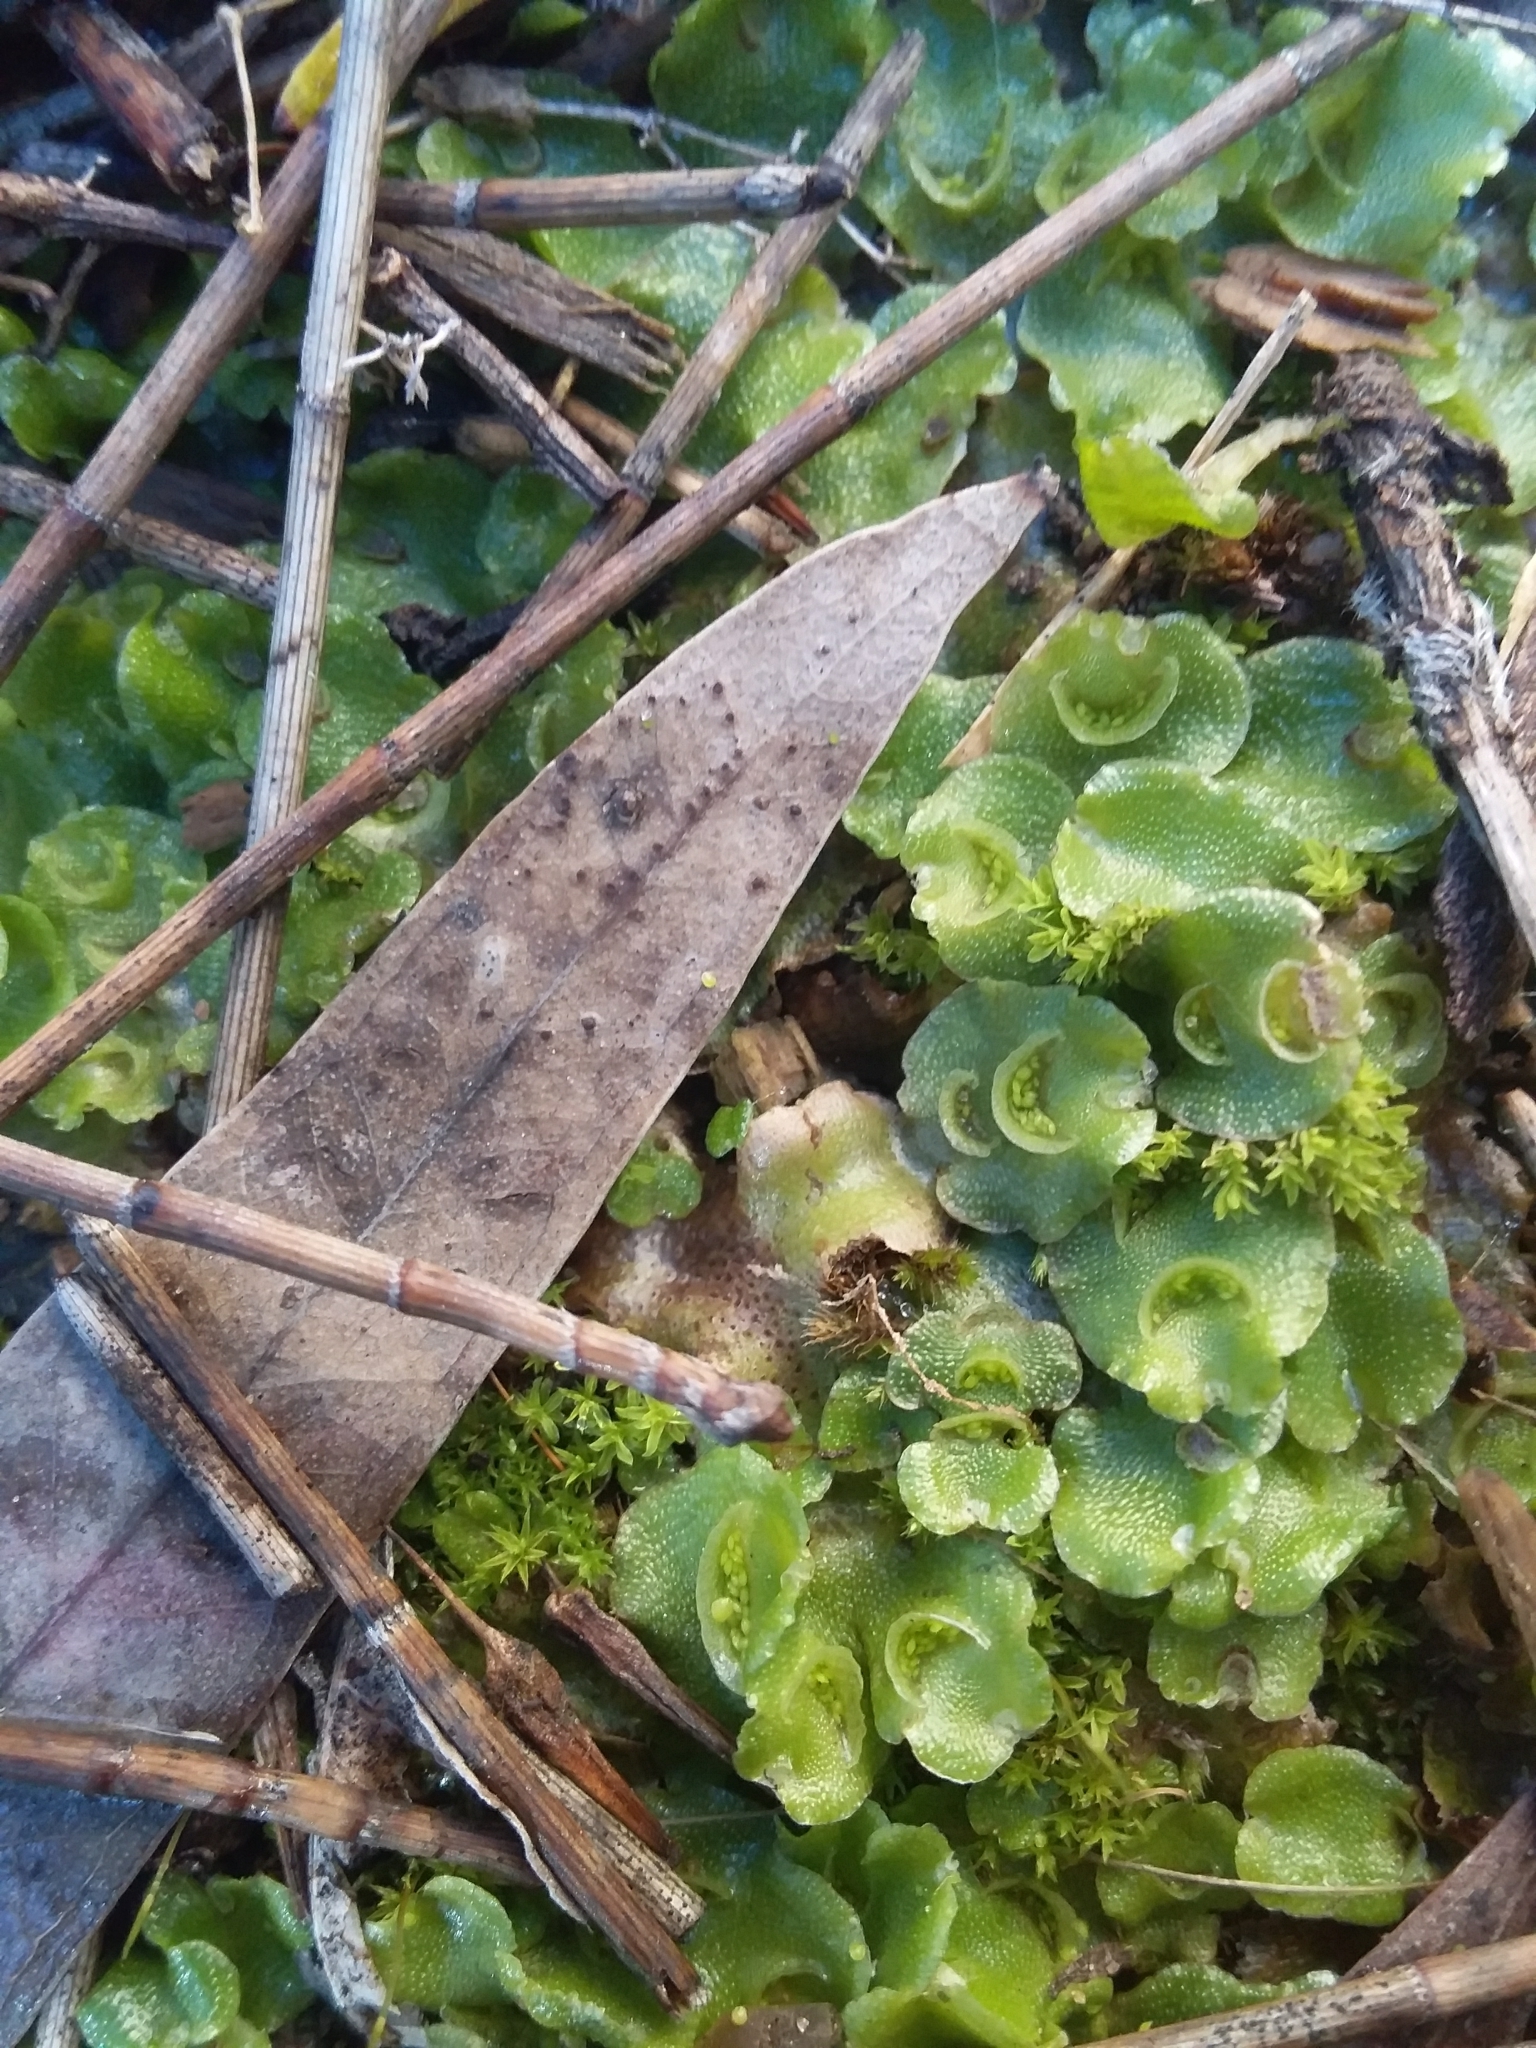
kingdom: Plantae
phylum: Marchantiophyta
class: Marchantiopsida
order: Lunulariales
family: Lunulariaceae
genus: Lunularia
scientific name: Lunularia cruciata
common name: Crescent-cup liverwort
